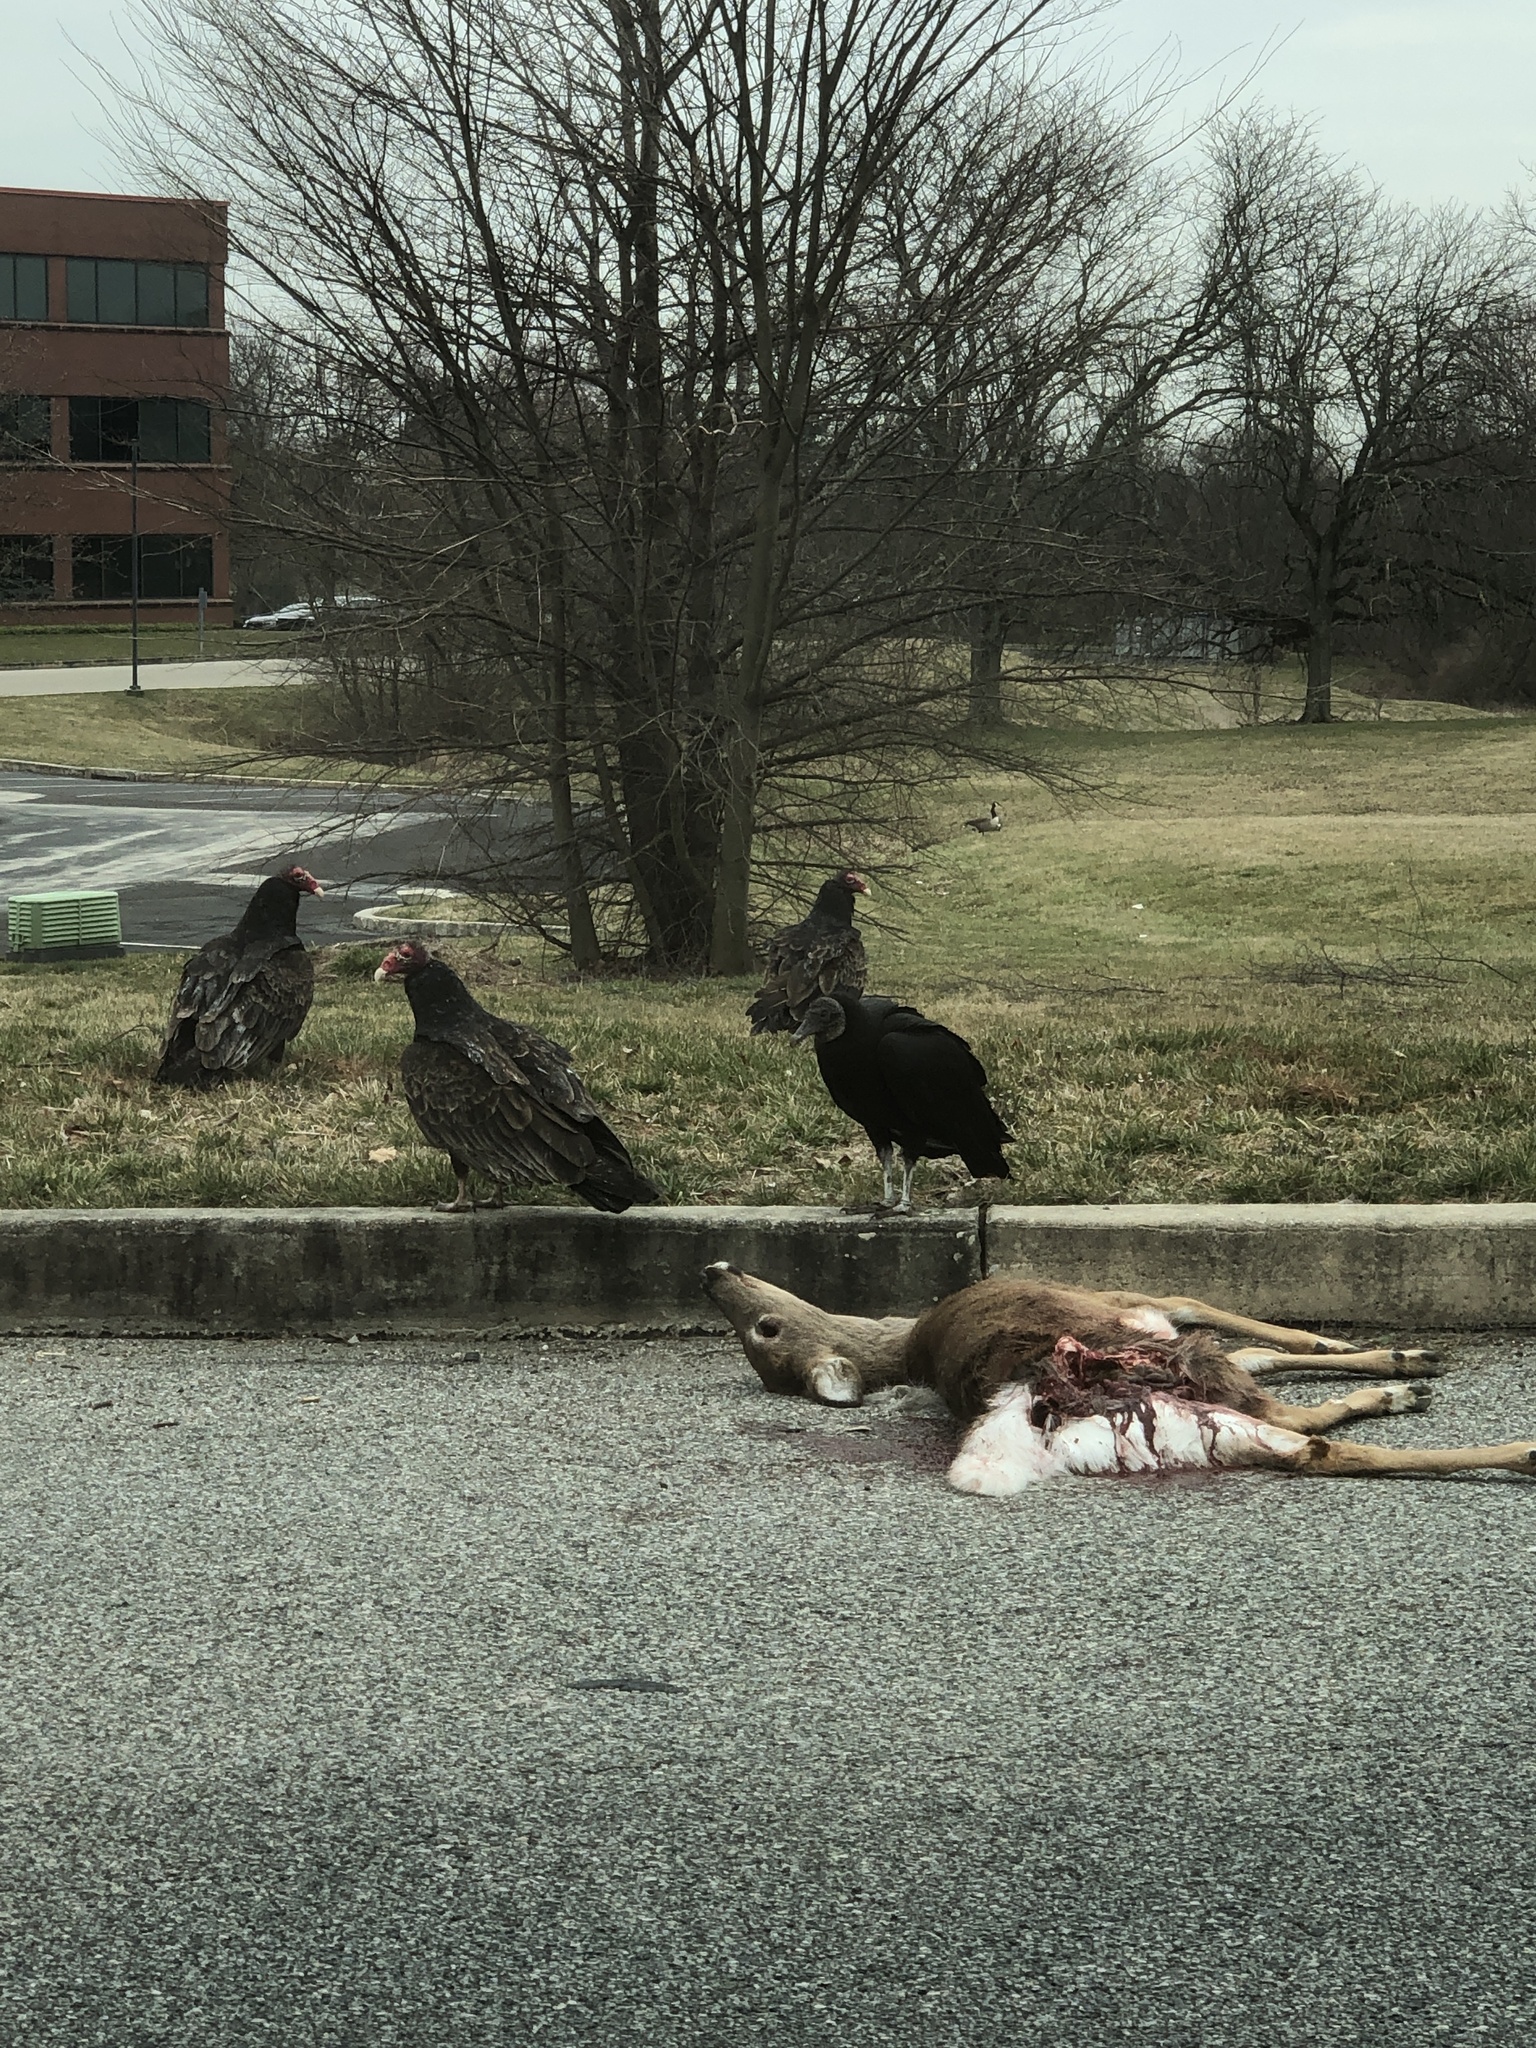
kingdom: Animalia
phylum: Chordata
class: Mammalia
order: Artiodactyla
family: Cervidae
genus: Odocoileus
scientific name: Odocoileus virginianus
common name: White-tailed deer
